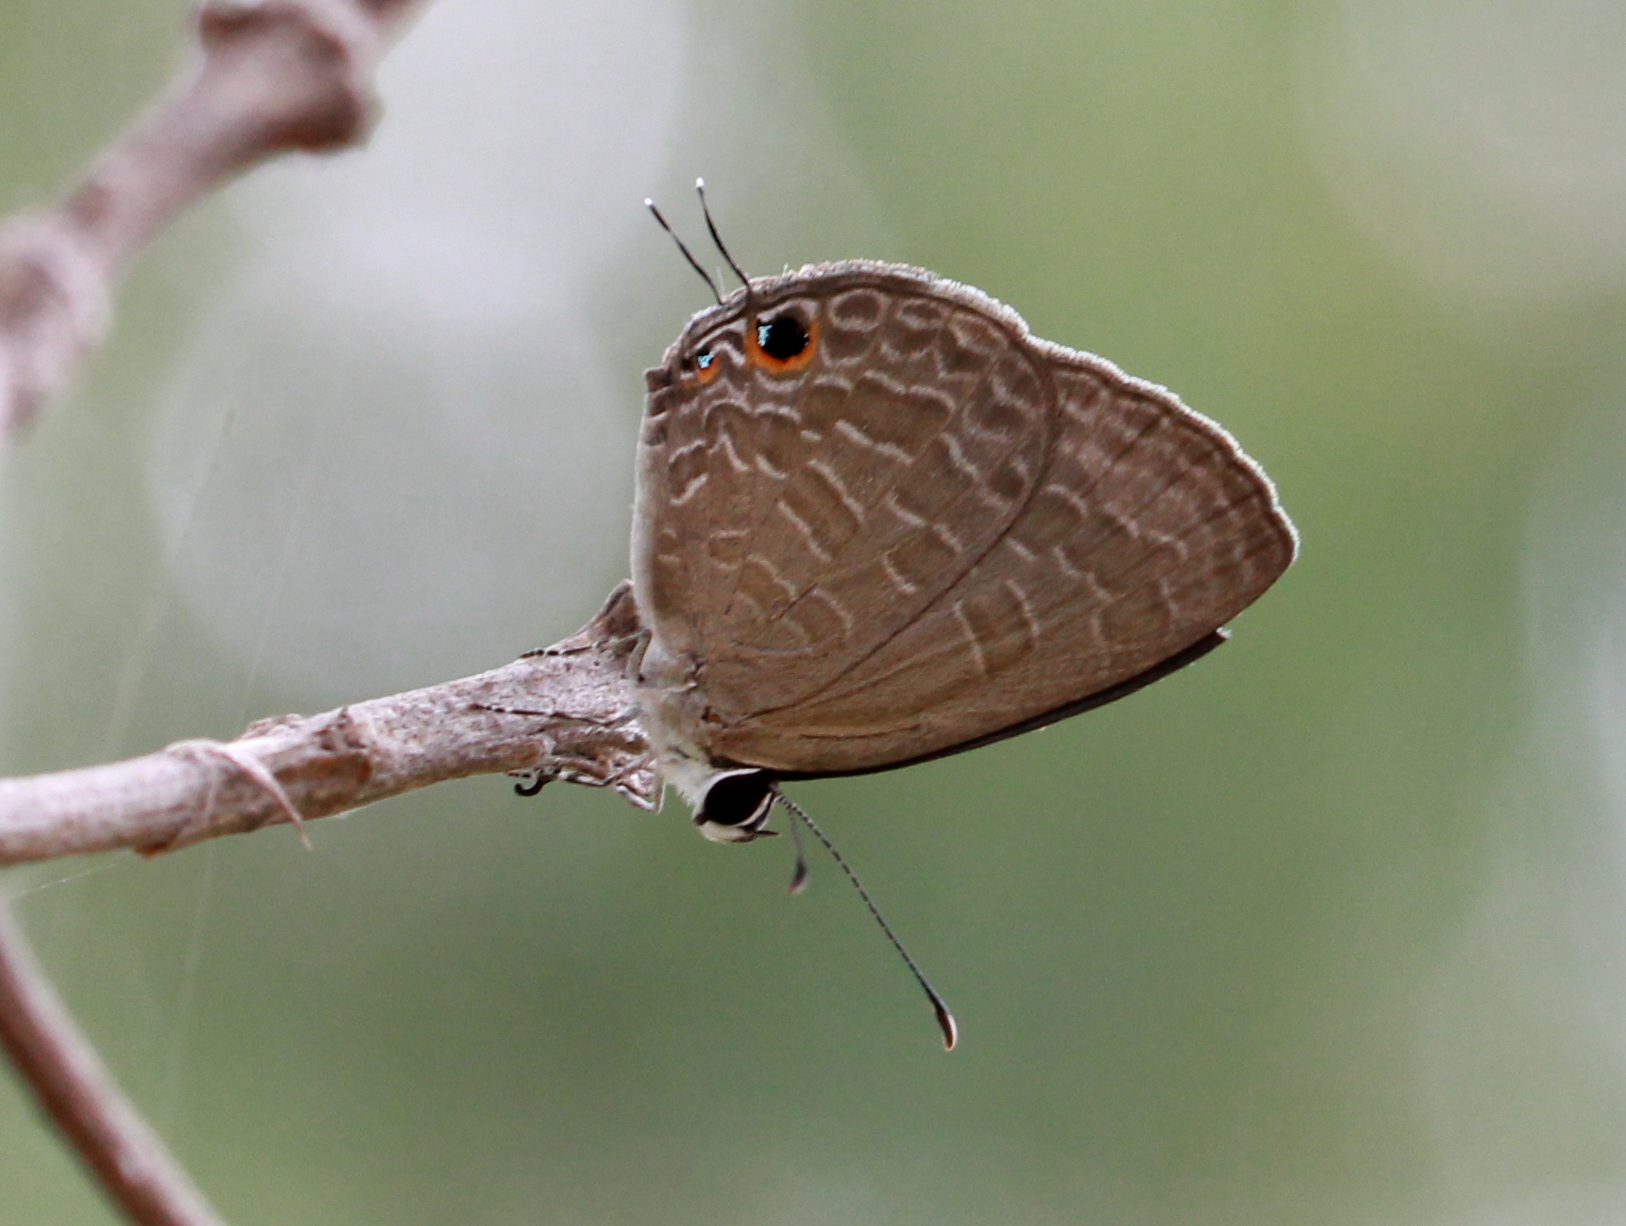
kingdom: Animalia
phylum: Arthropoda
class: Insecta
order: Lepidoptera
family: Lycaenidae
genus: Jamides
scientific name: Jamides bochus
